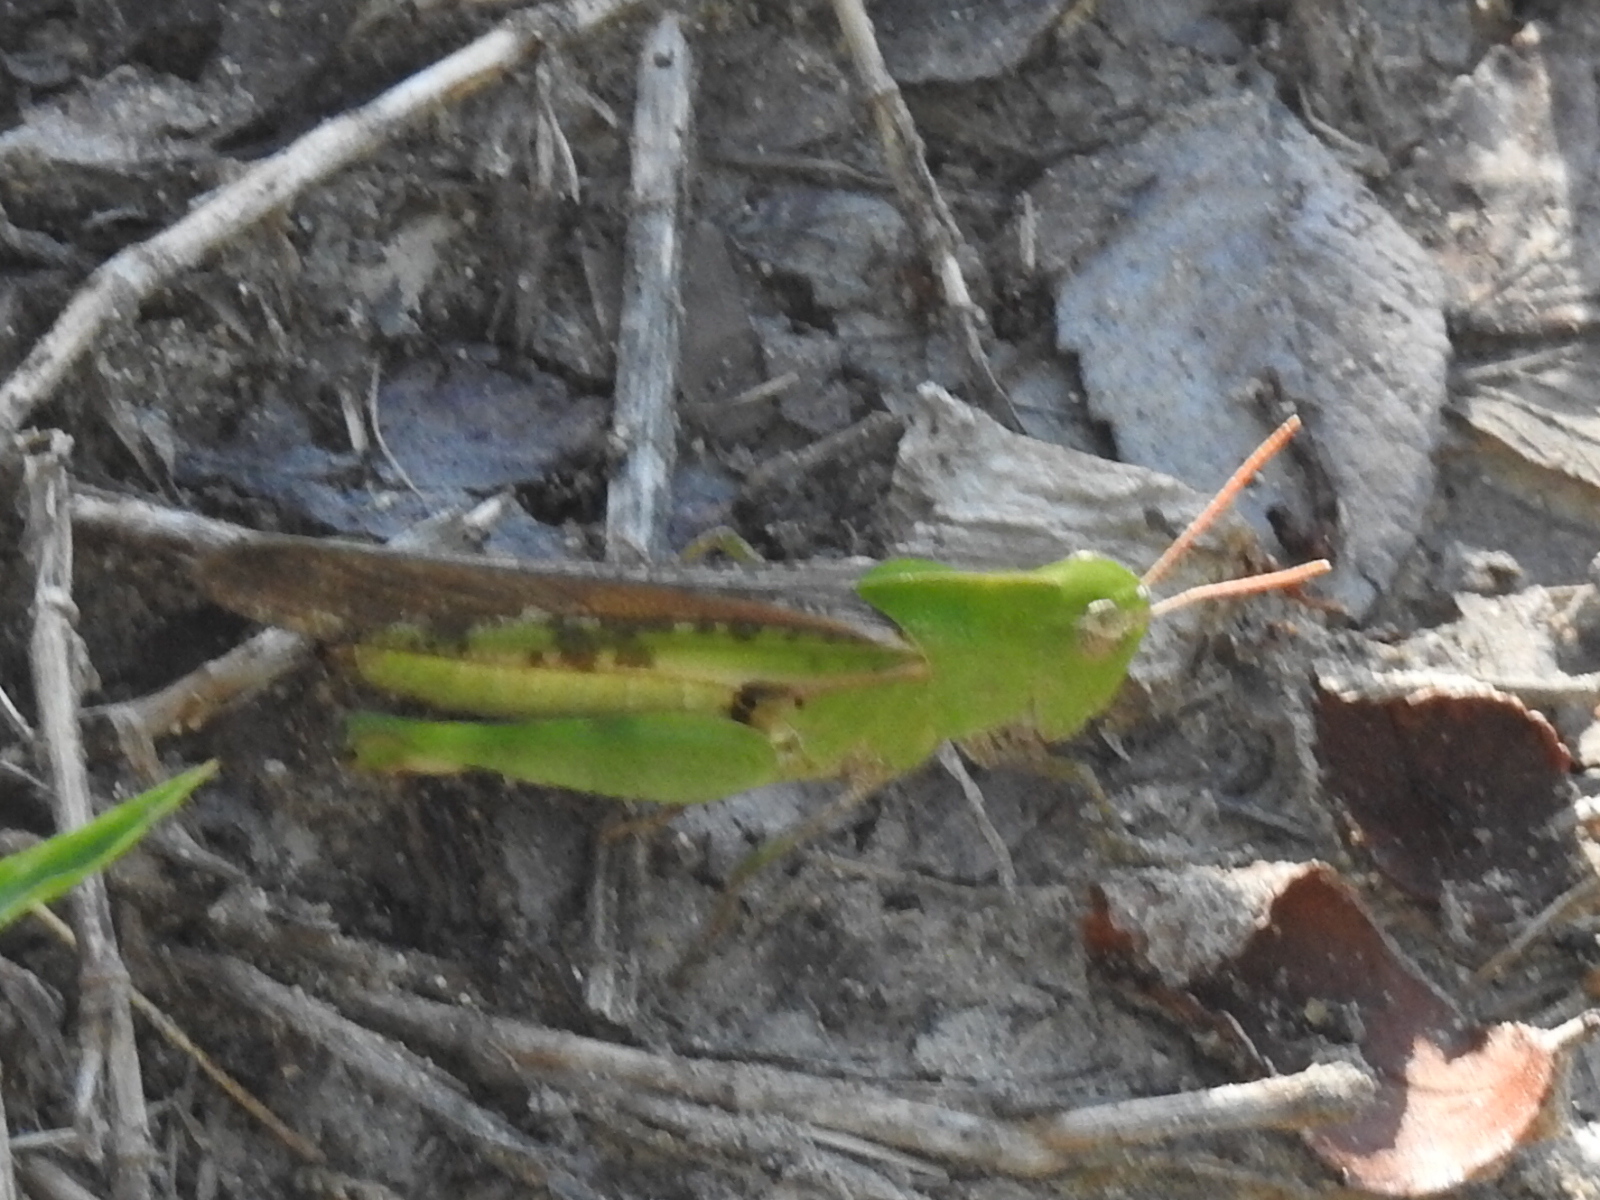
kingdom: Animalia
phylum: Arthropoda
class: Insecta
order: Orthoptera
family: Acrididae
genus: Chortophaga
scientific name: Chortophaga viridifasciata
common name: Green-striped grasshopper
